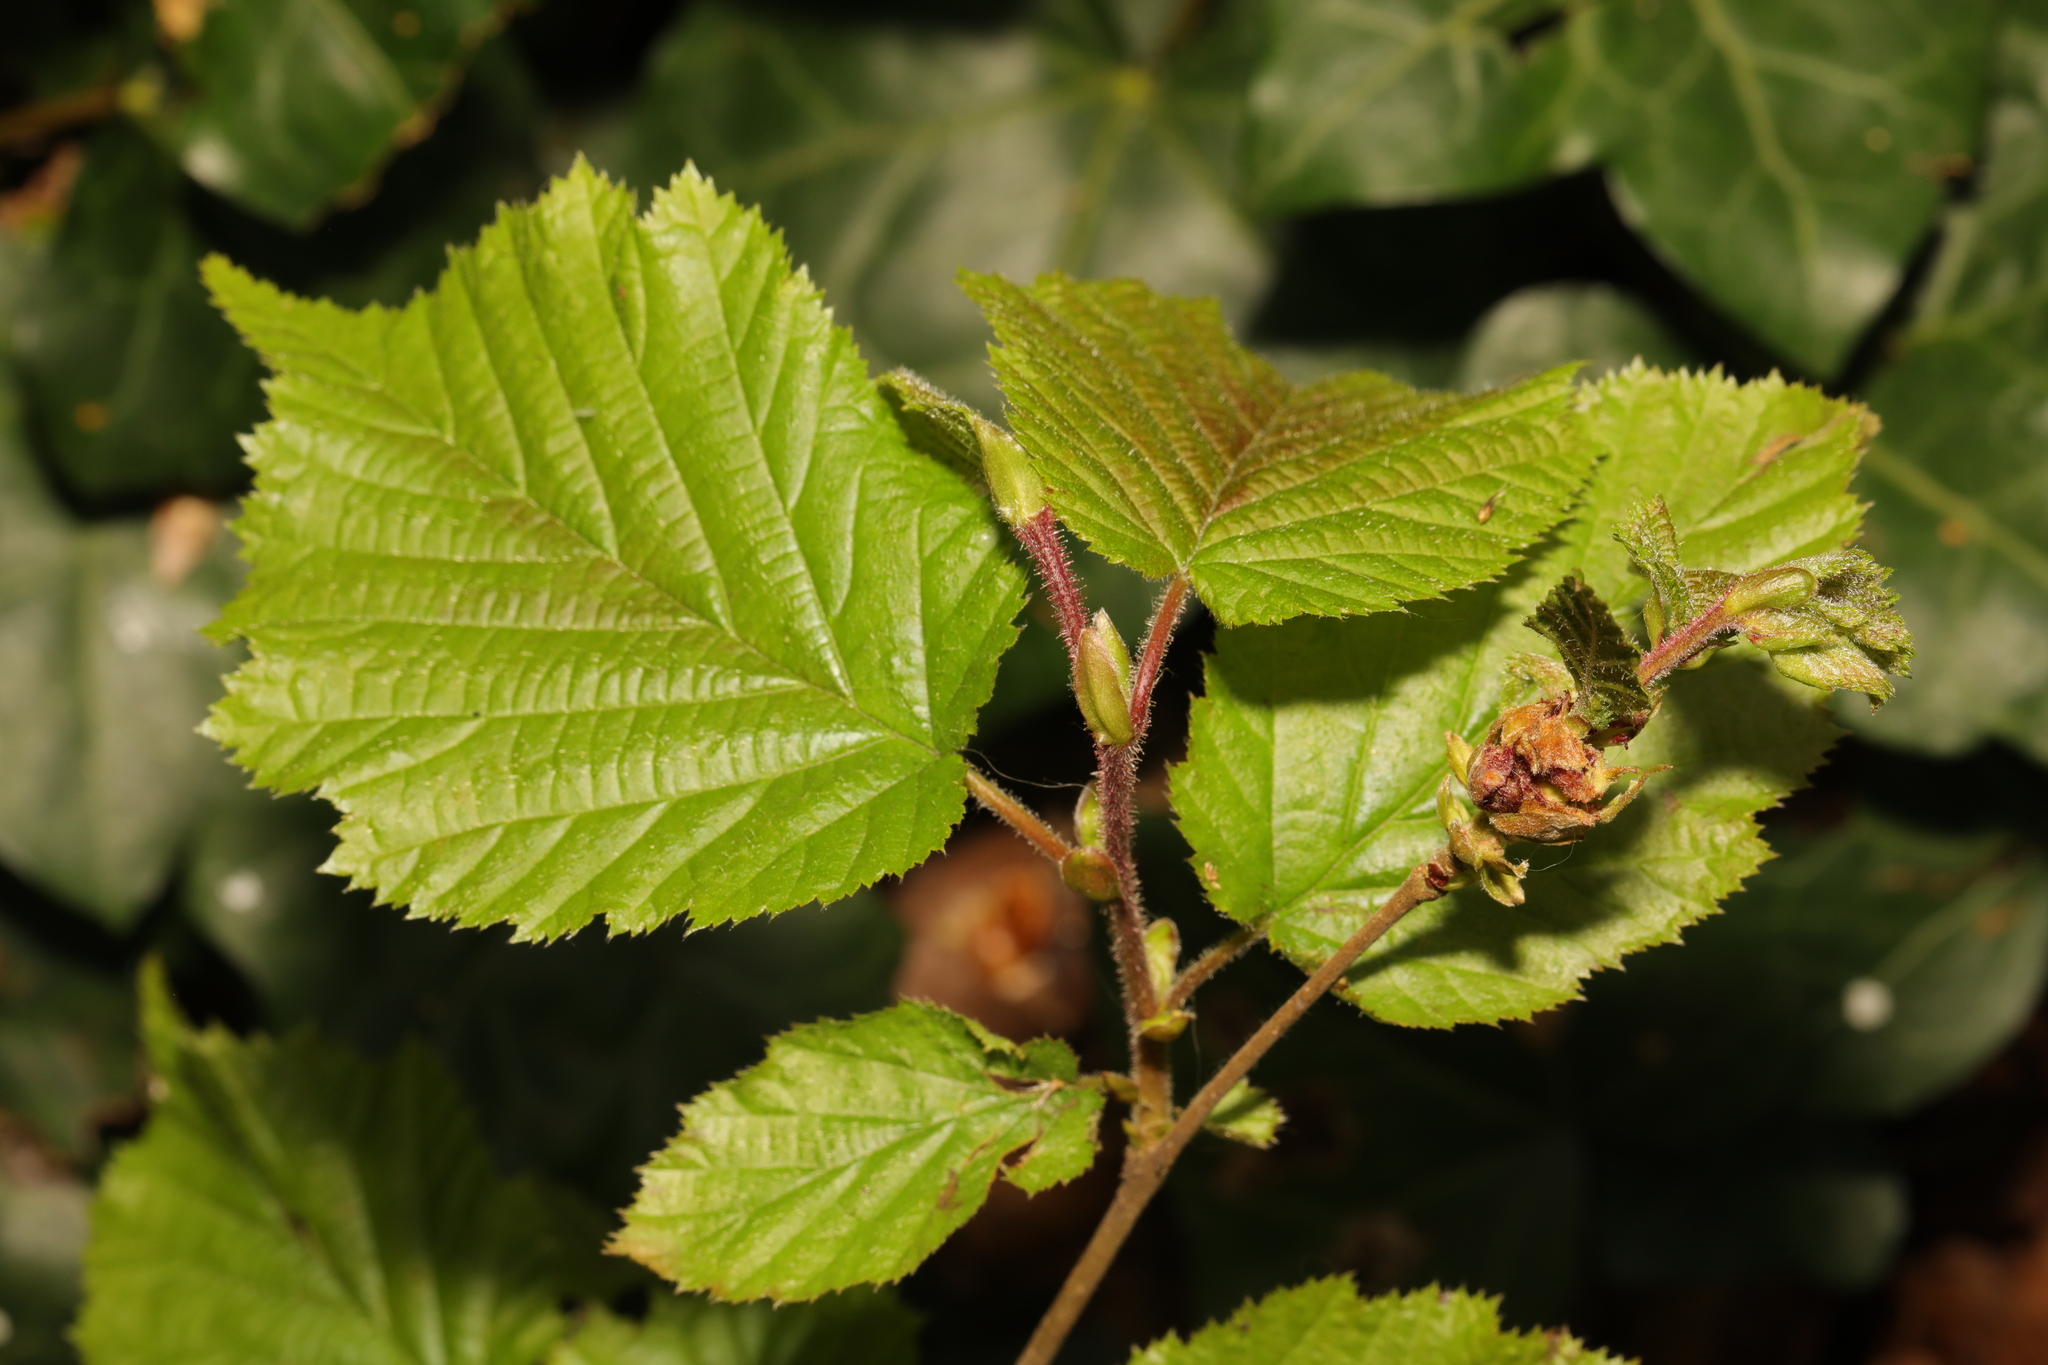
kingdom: Plantae
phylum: Tracheophyta
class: Magnoliopsida
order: Fagales
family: Betulaceae
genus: Corylus
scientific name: Corylus avellana
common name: European hazel
